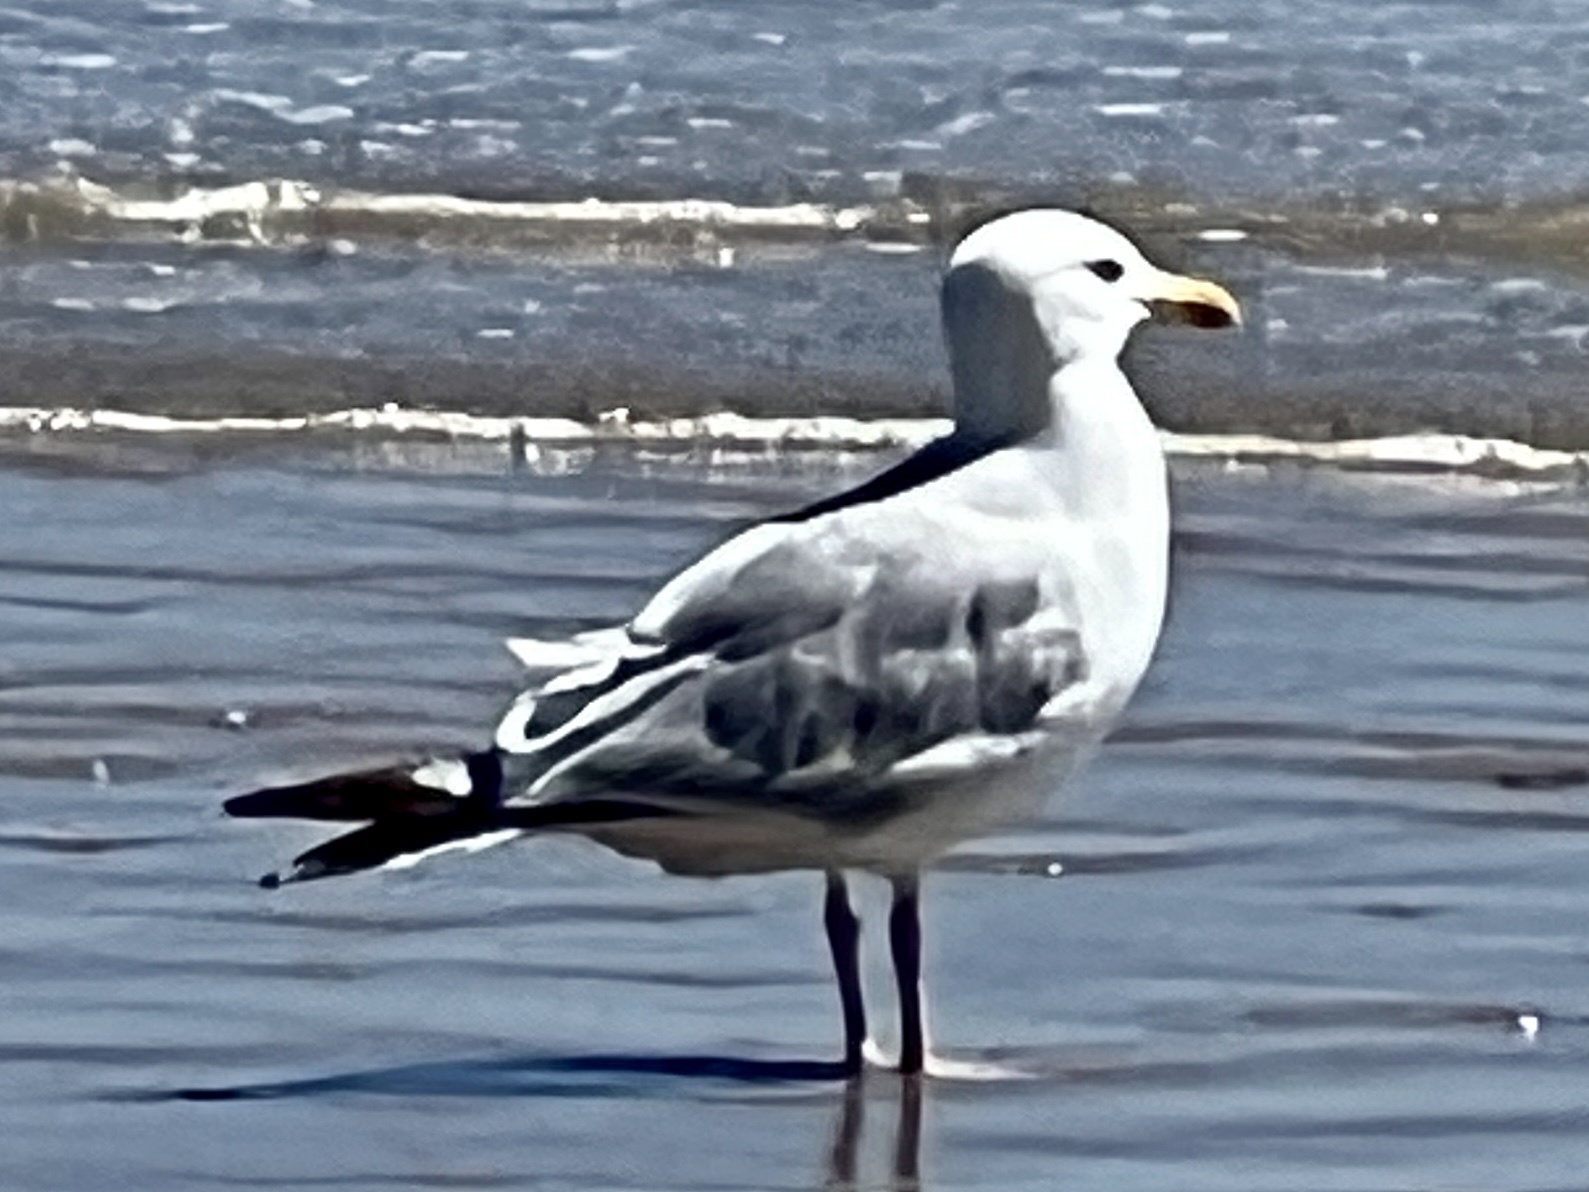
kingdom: Animalia
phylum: Chordata
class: Aves
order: Charadriiformes
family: Laridae
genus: Larus
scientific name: Larus argentatus
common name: Herring gull
